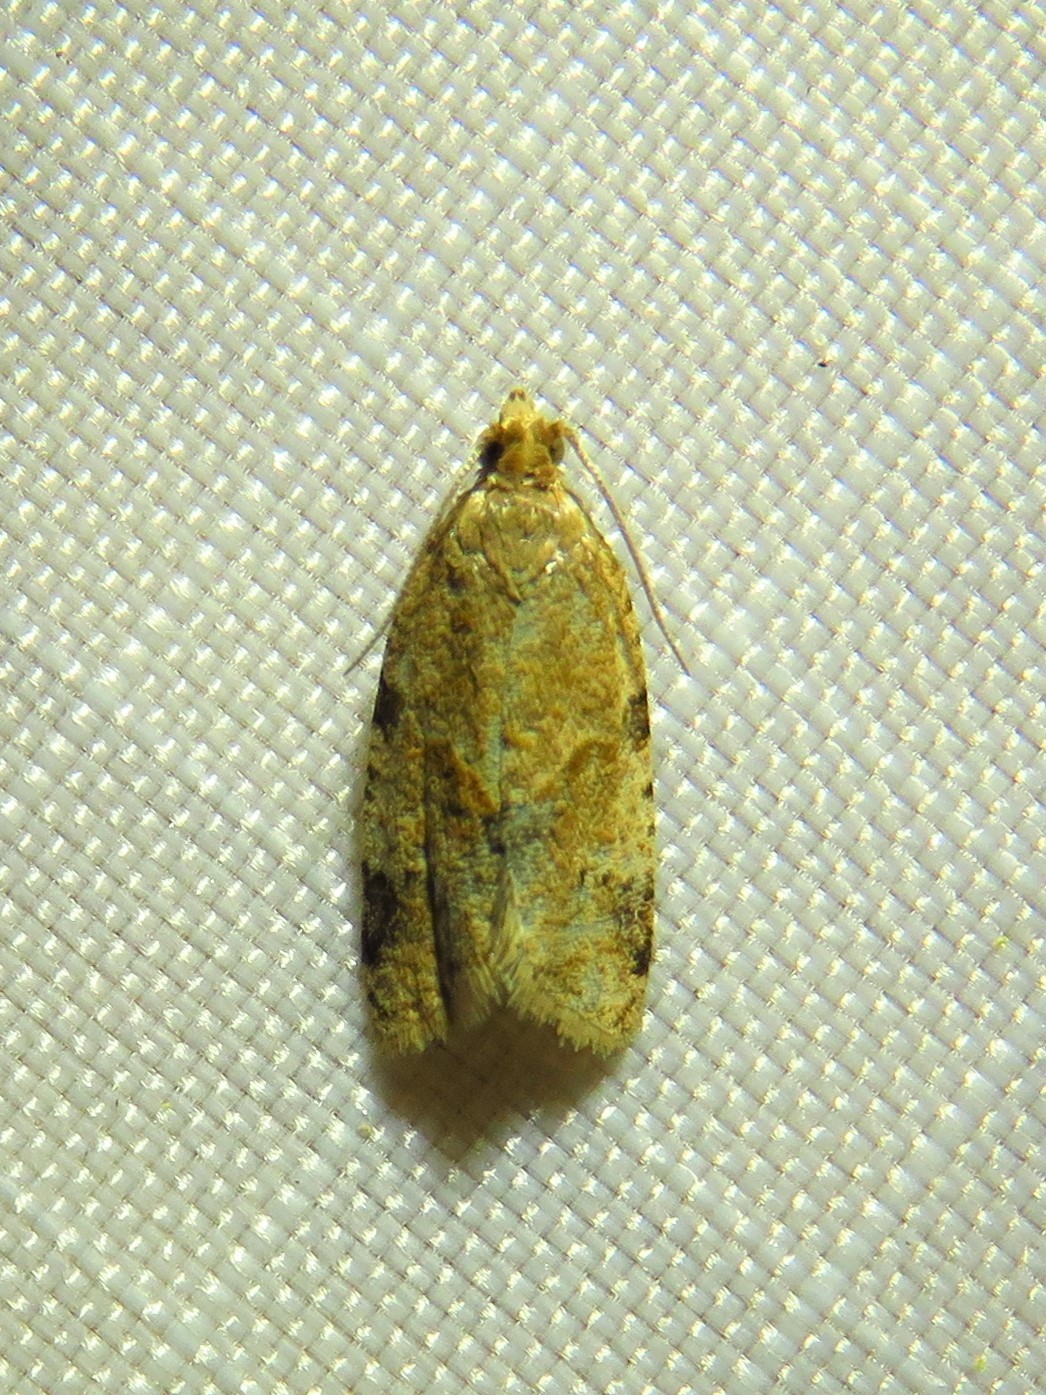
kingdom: Animalia
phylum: Arthropoda
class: Insecta
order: Lepidoptera
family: Tortricidae
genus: Clepsis
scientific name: Clepsis peritana
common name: Garden tortrix
